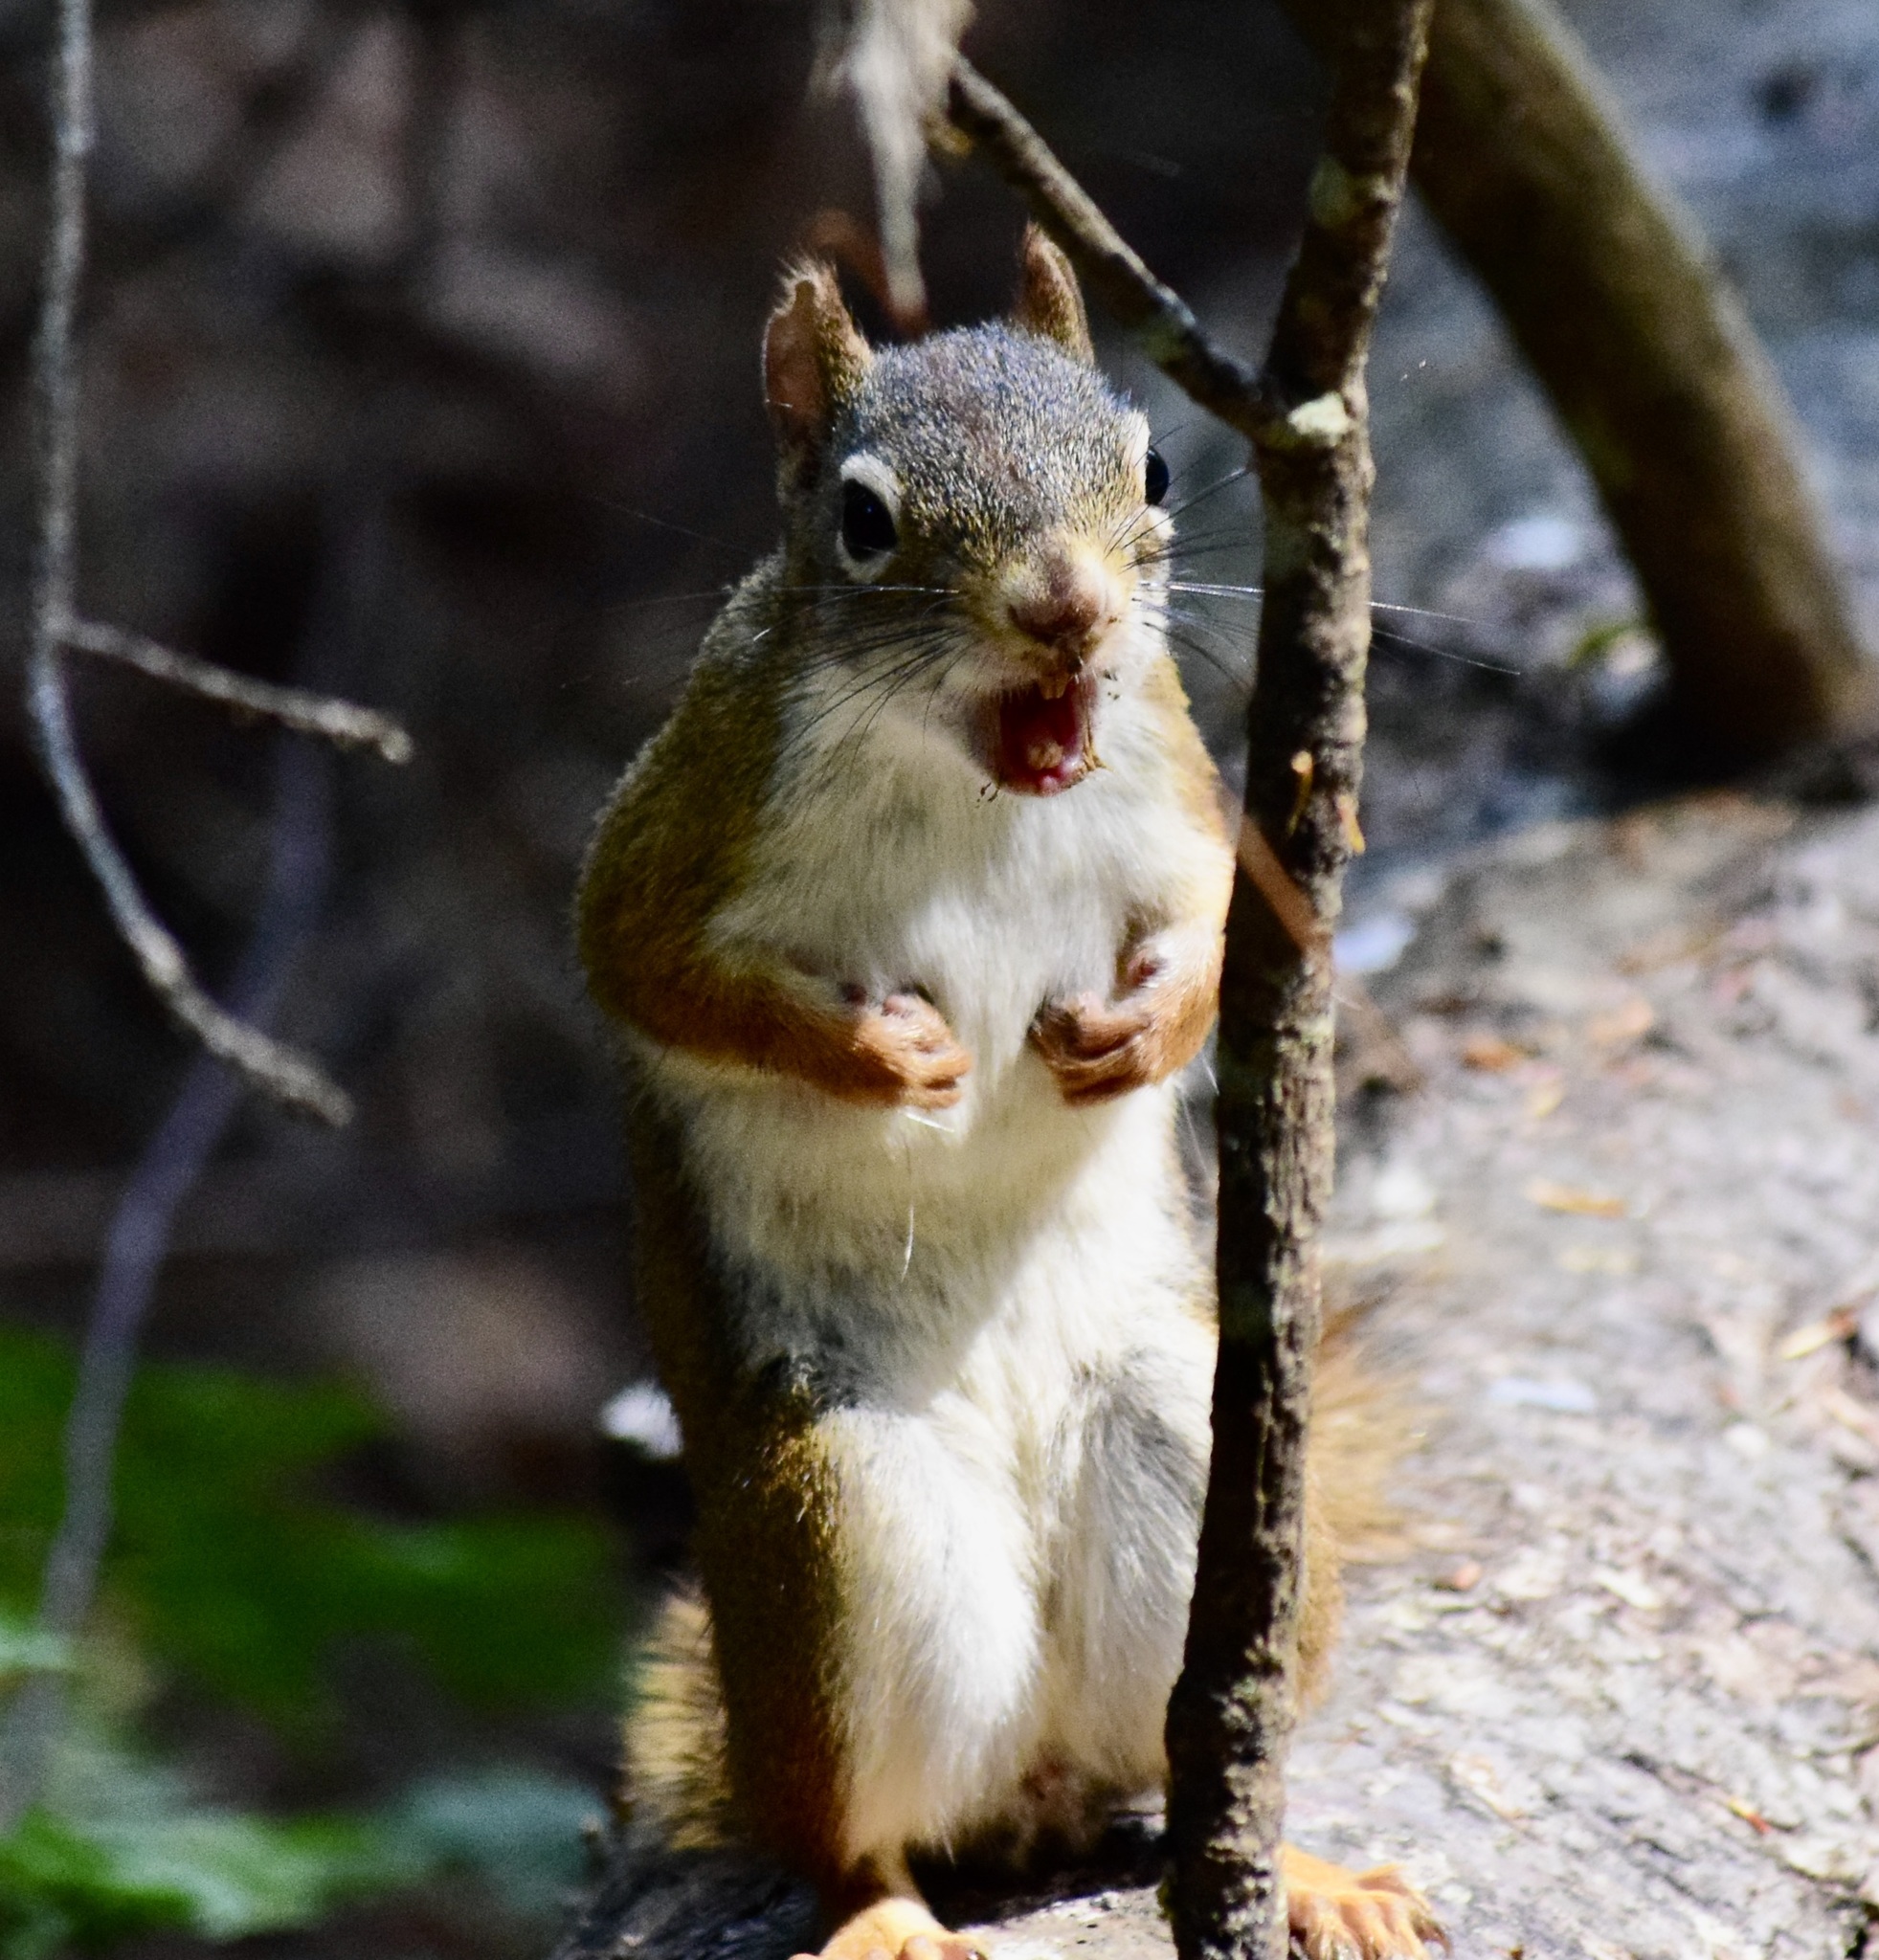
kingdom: Animalia
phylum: Chordata
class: Mammalia
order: Rodentia
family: Sciuridae
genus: Tamiasciurus
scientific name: Tamiasciurus hudsonicus
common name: Red squirrel
